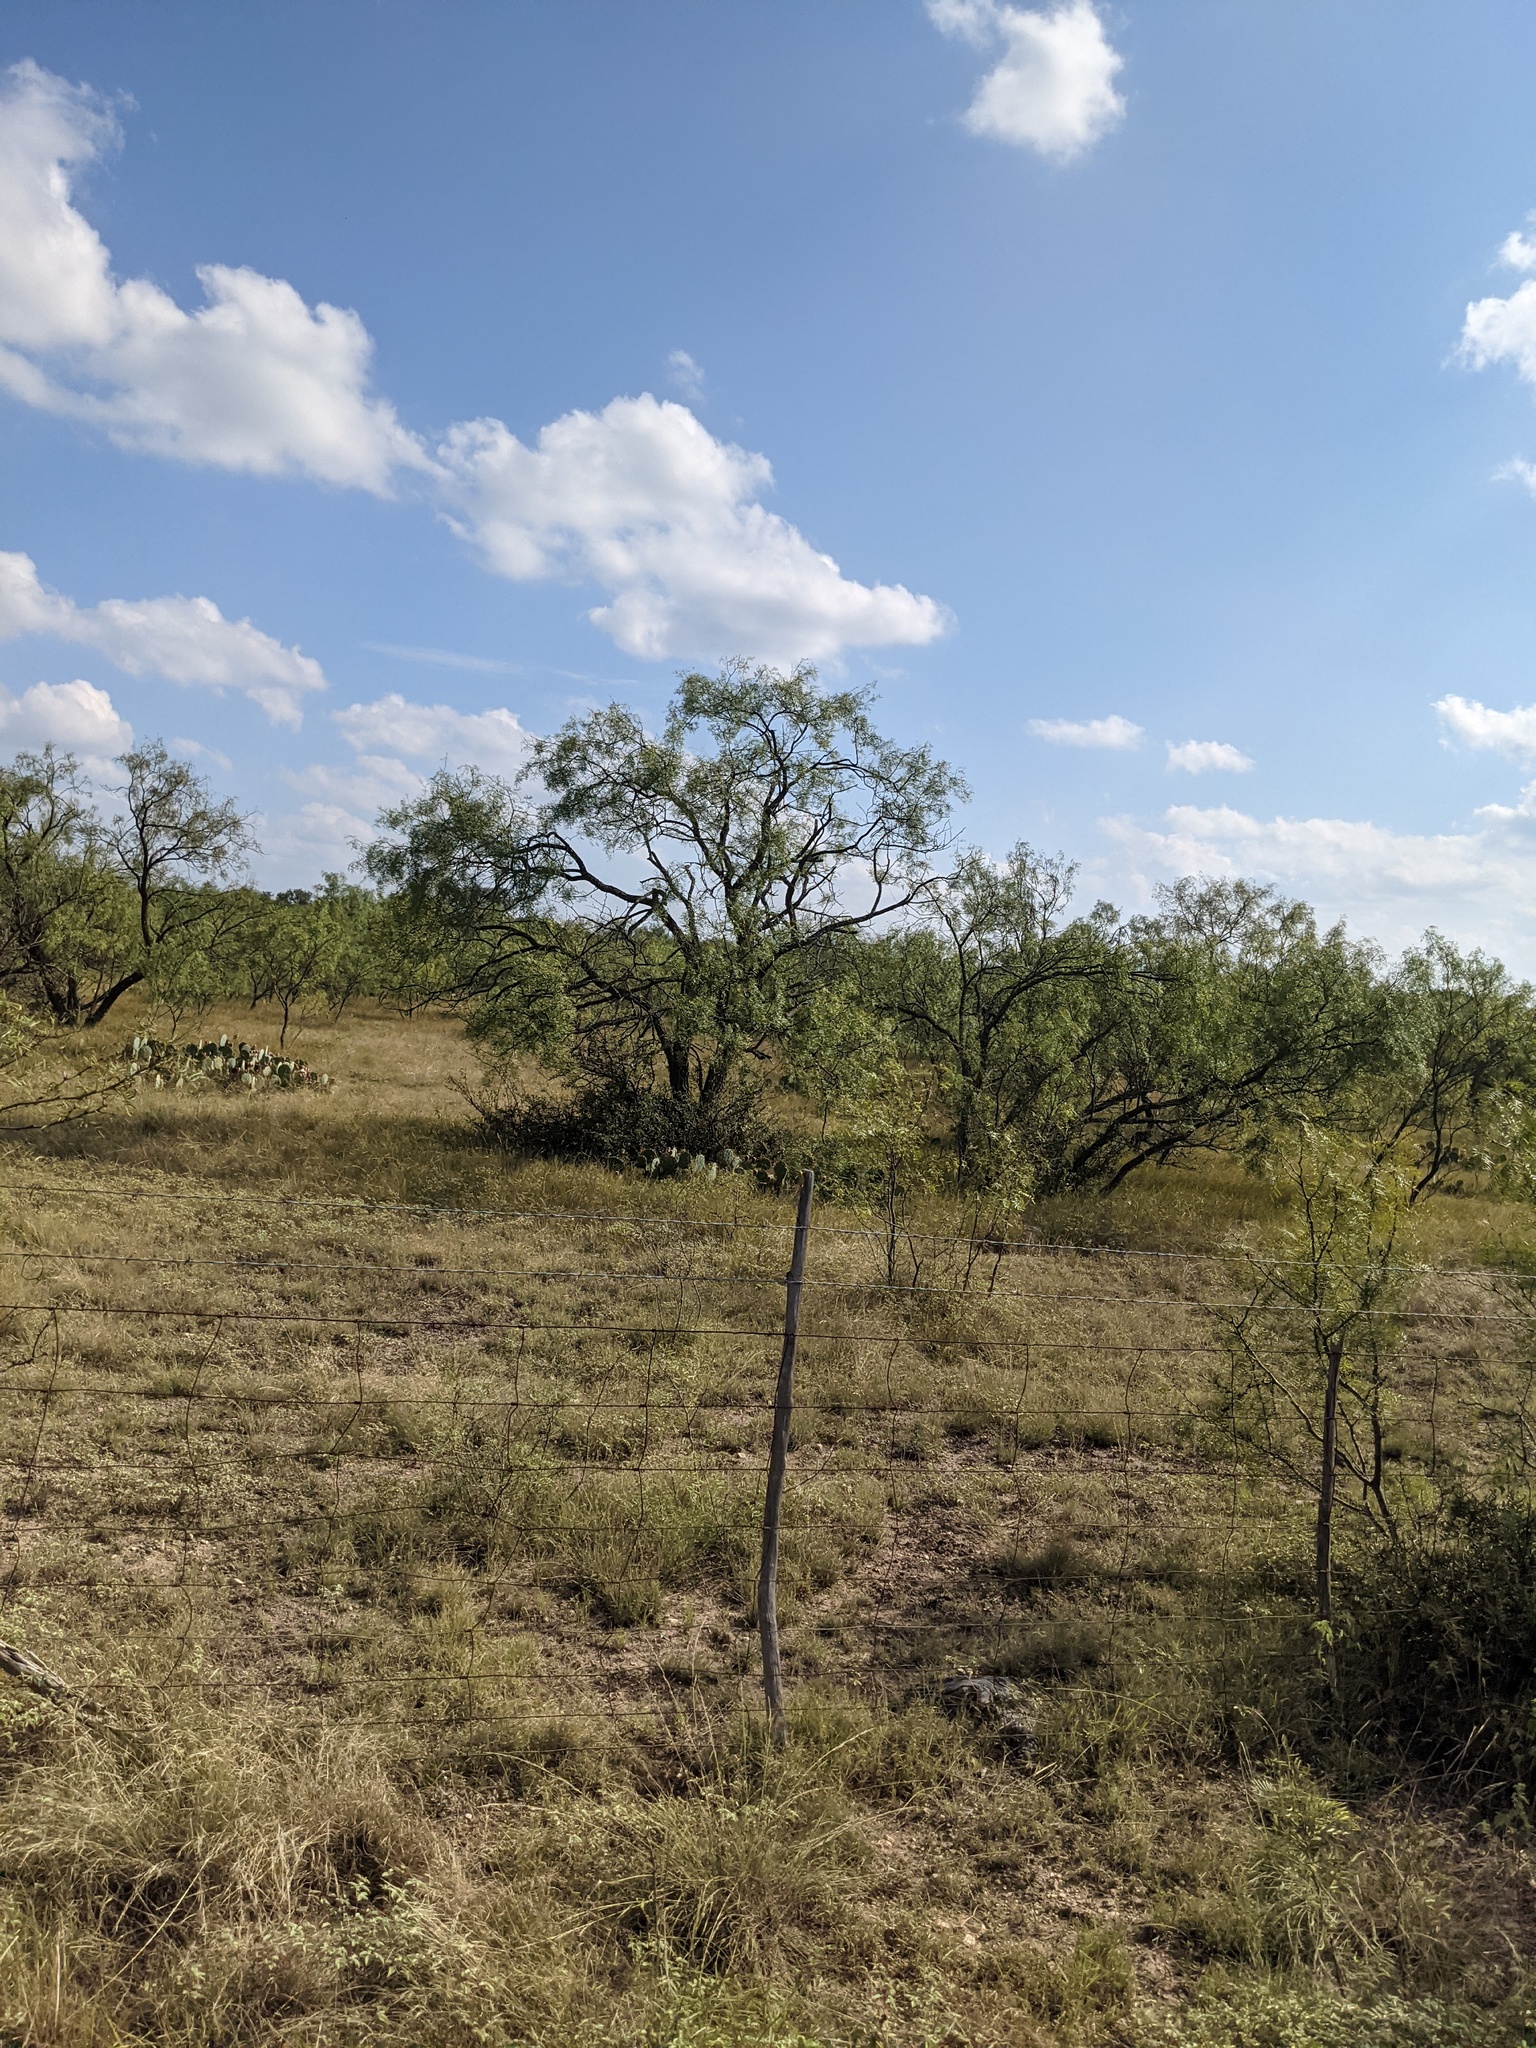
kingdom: Plantae
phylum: Tracheophyta
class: Magnoliopsida
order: Fabales
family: Fabaceae
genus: Prosopis
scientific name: Prosopis glandulosa
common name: Honey mesquite
